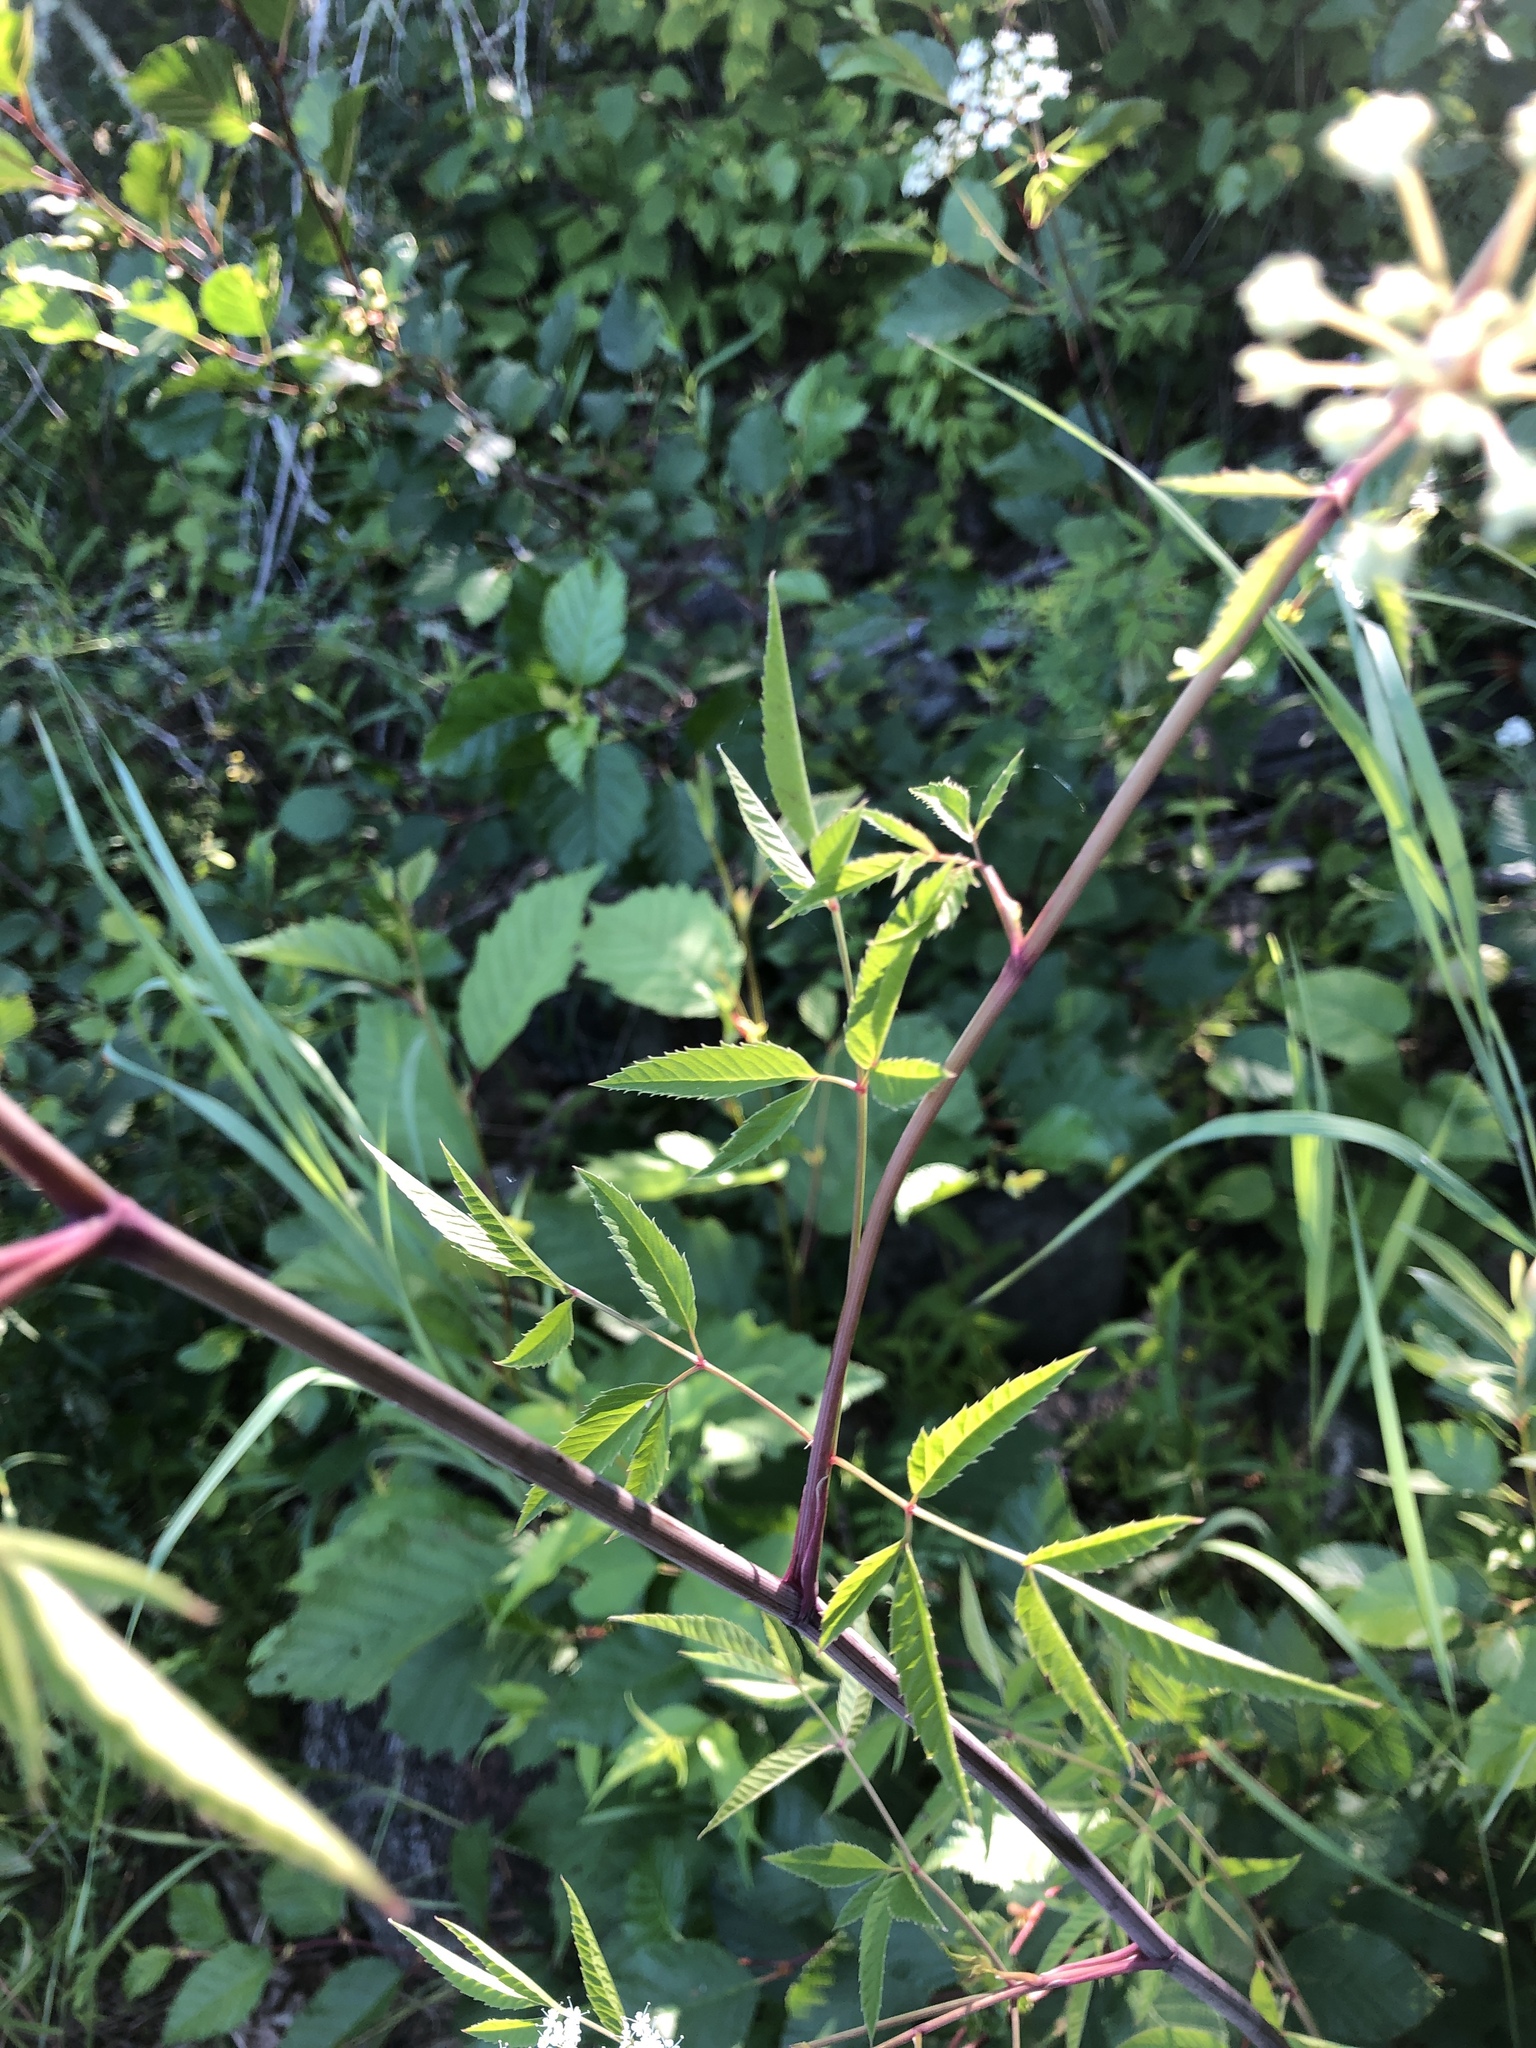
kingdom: Plantae
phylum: Tracheophyta
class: Magnoliopsida
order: Apiales
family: Apiaceae
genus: Cicuta
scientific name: Cicuta maculata
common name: Spotted cowbane
